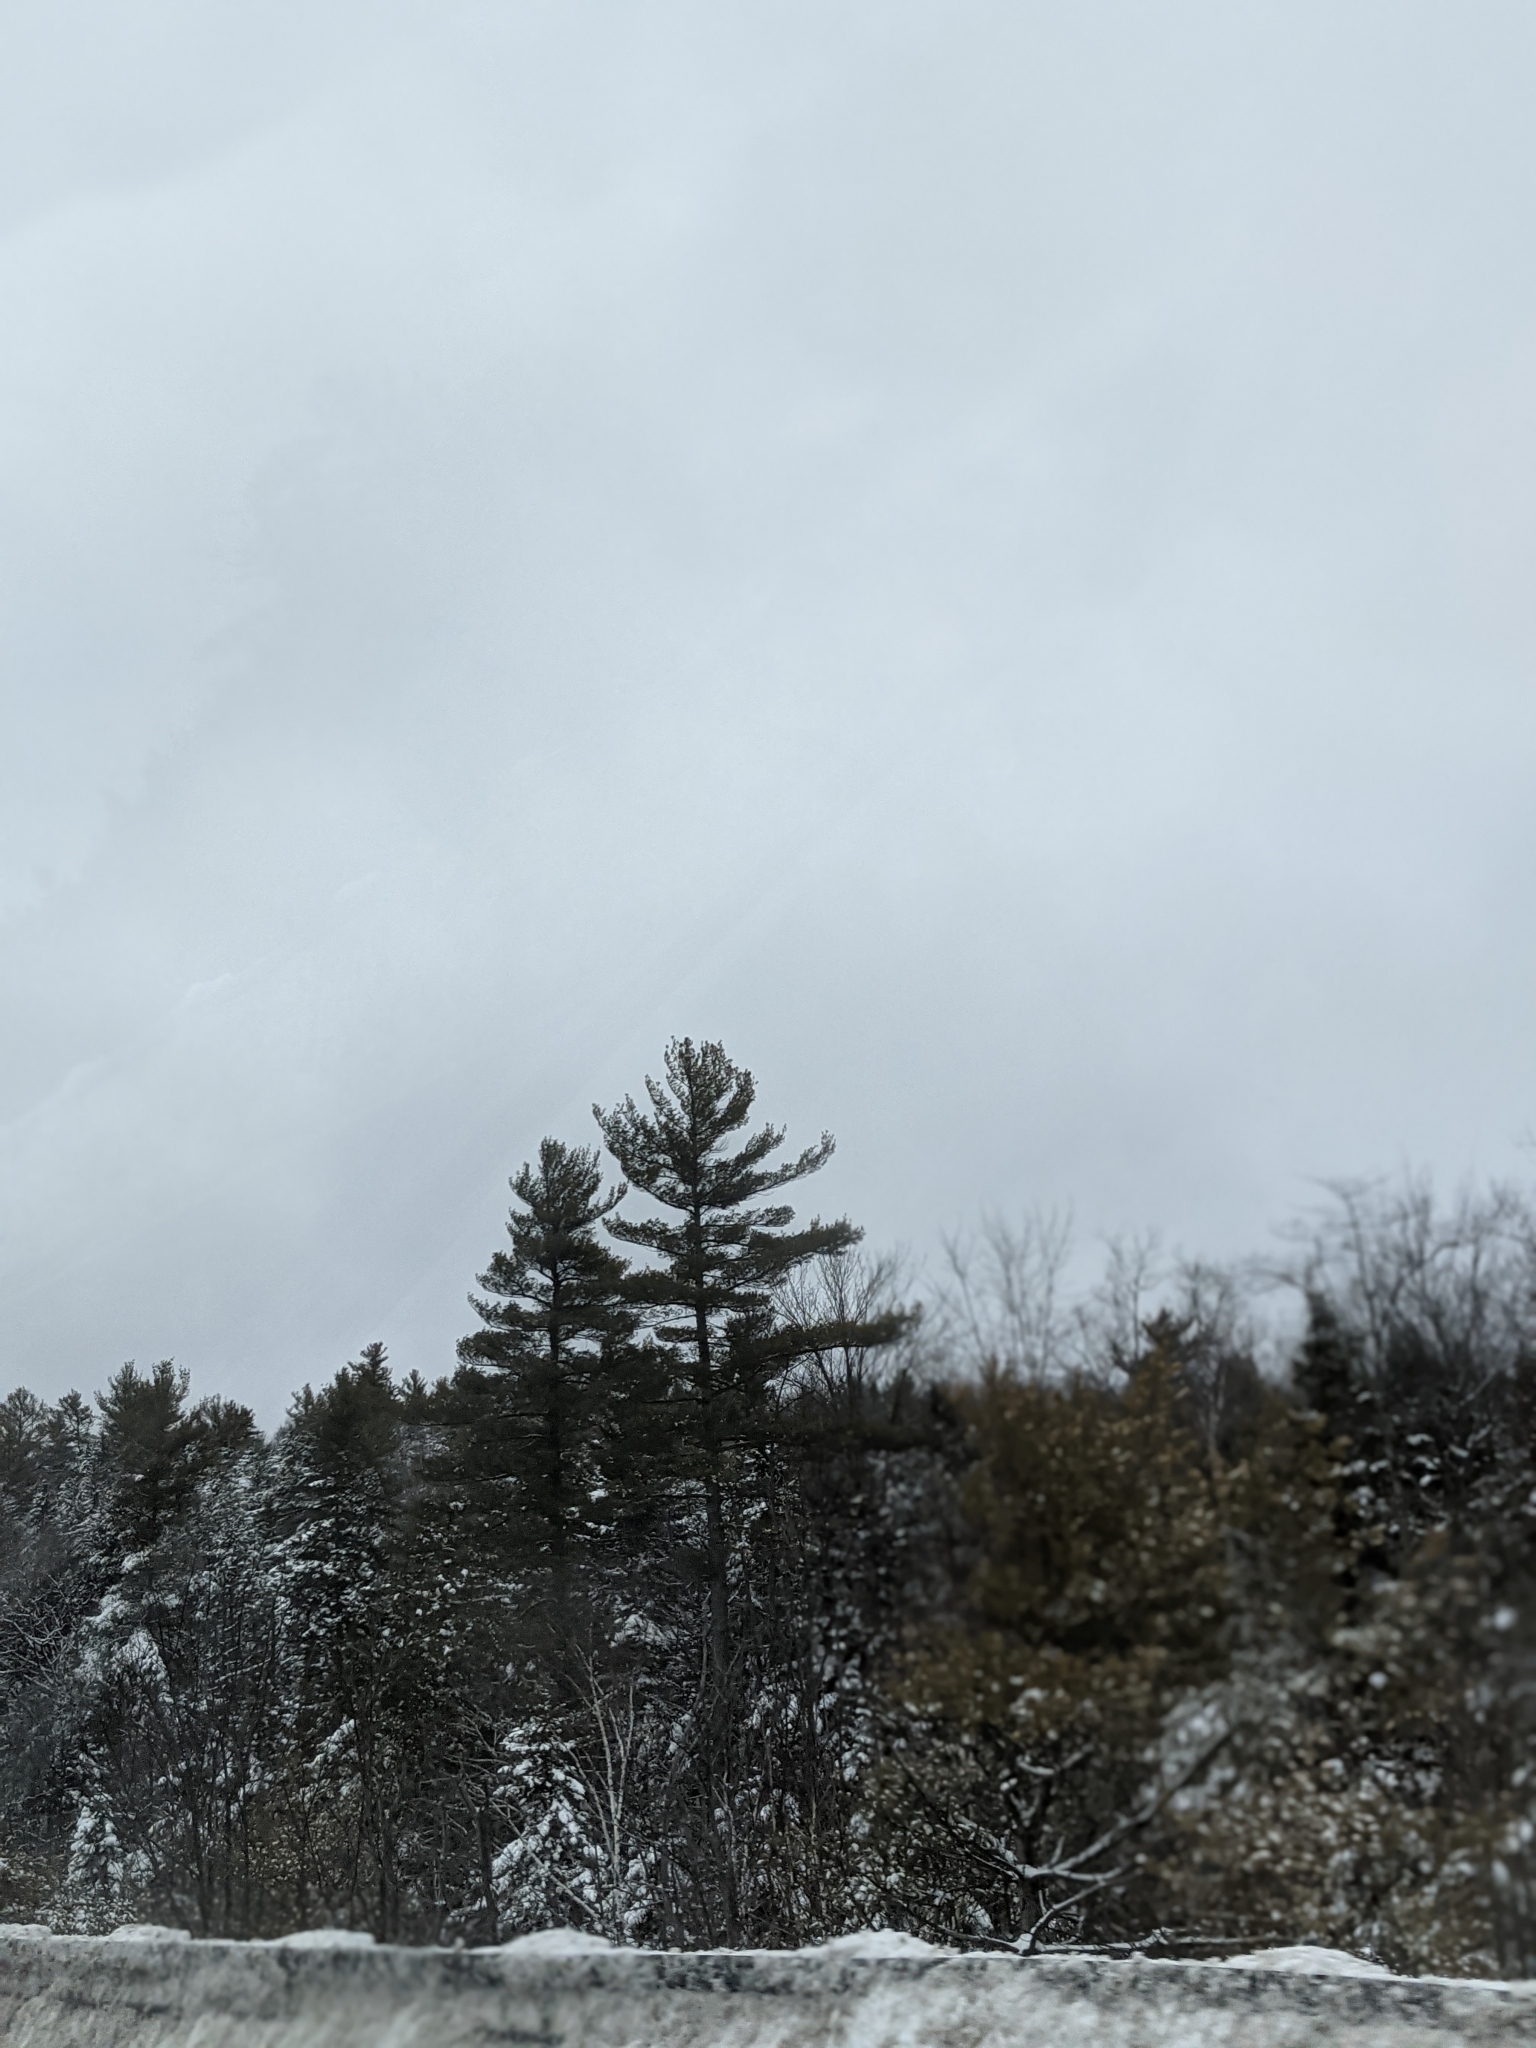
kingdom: Plantae
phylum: Tracheophyta
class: Pinopsida
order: Pinales
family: Pinaceae
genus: Pinus
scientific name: Pinus strobus
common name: Weymouth pine
